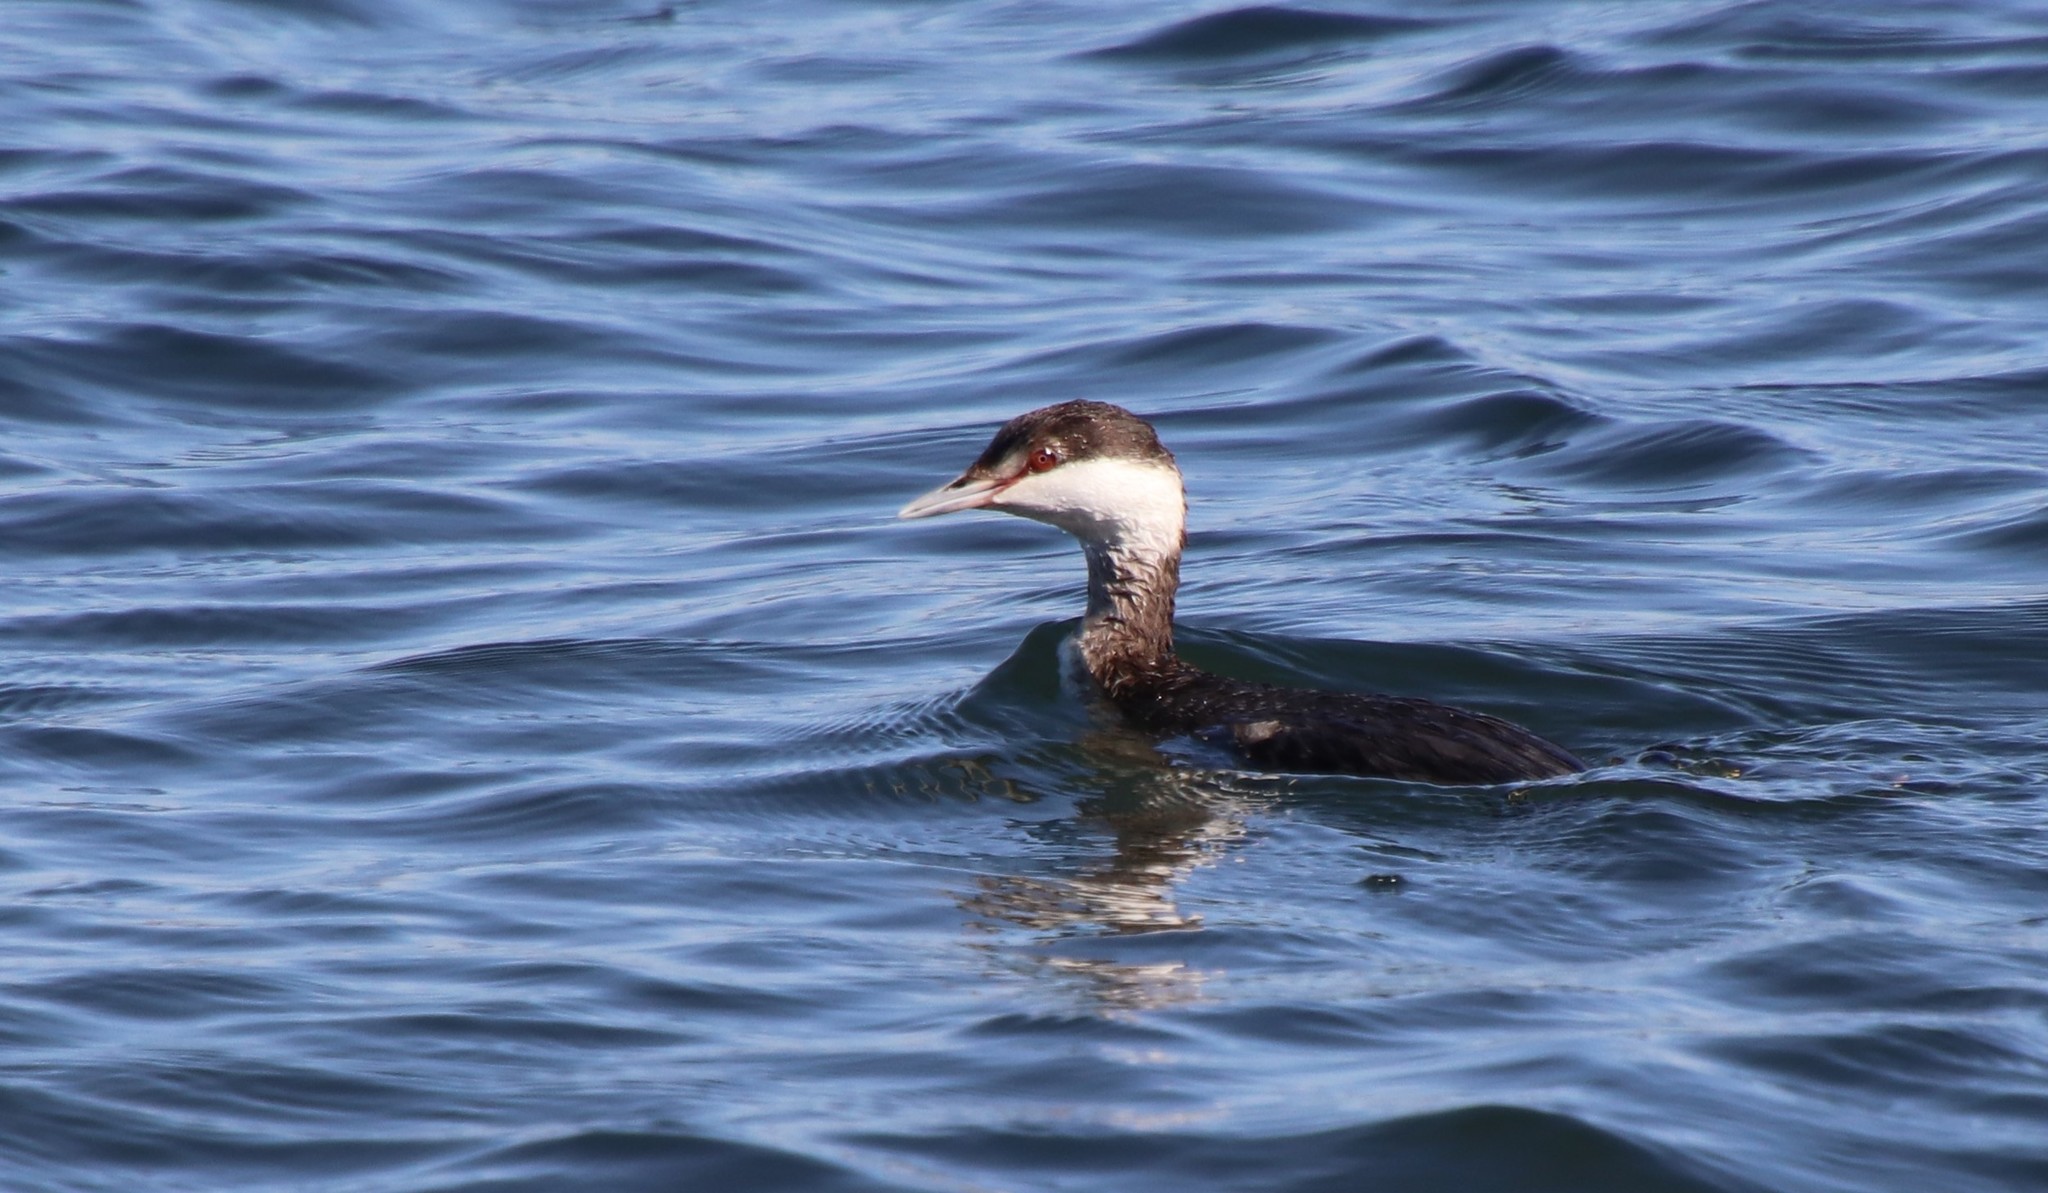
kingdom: Animalia
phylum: Chordata
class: Aves
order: Podicipediformes
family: Podicipedidae
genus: Podiceps
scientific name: Podiceps auritus
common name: Horned grebe
